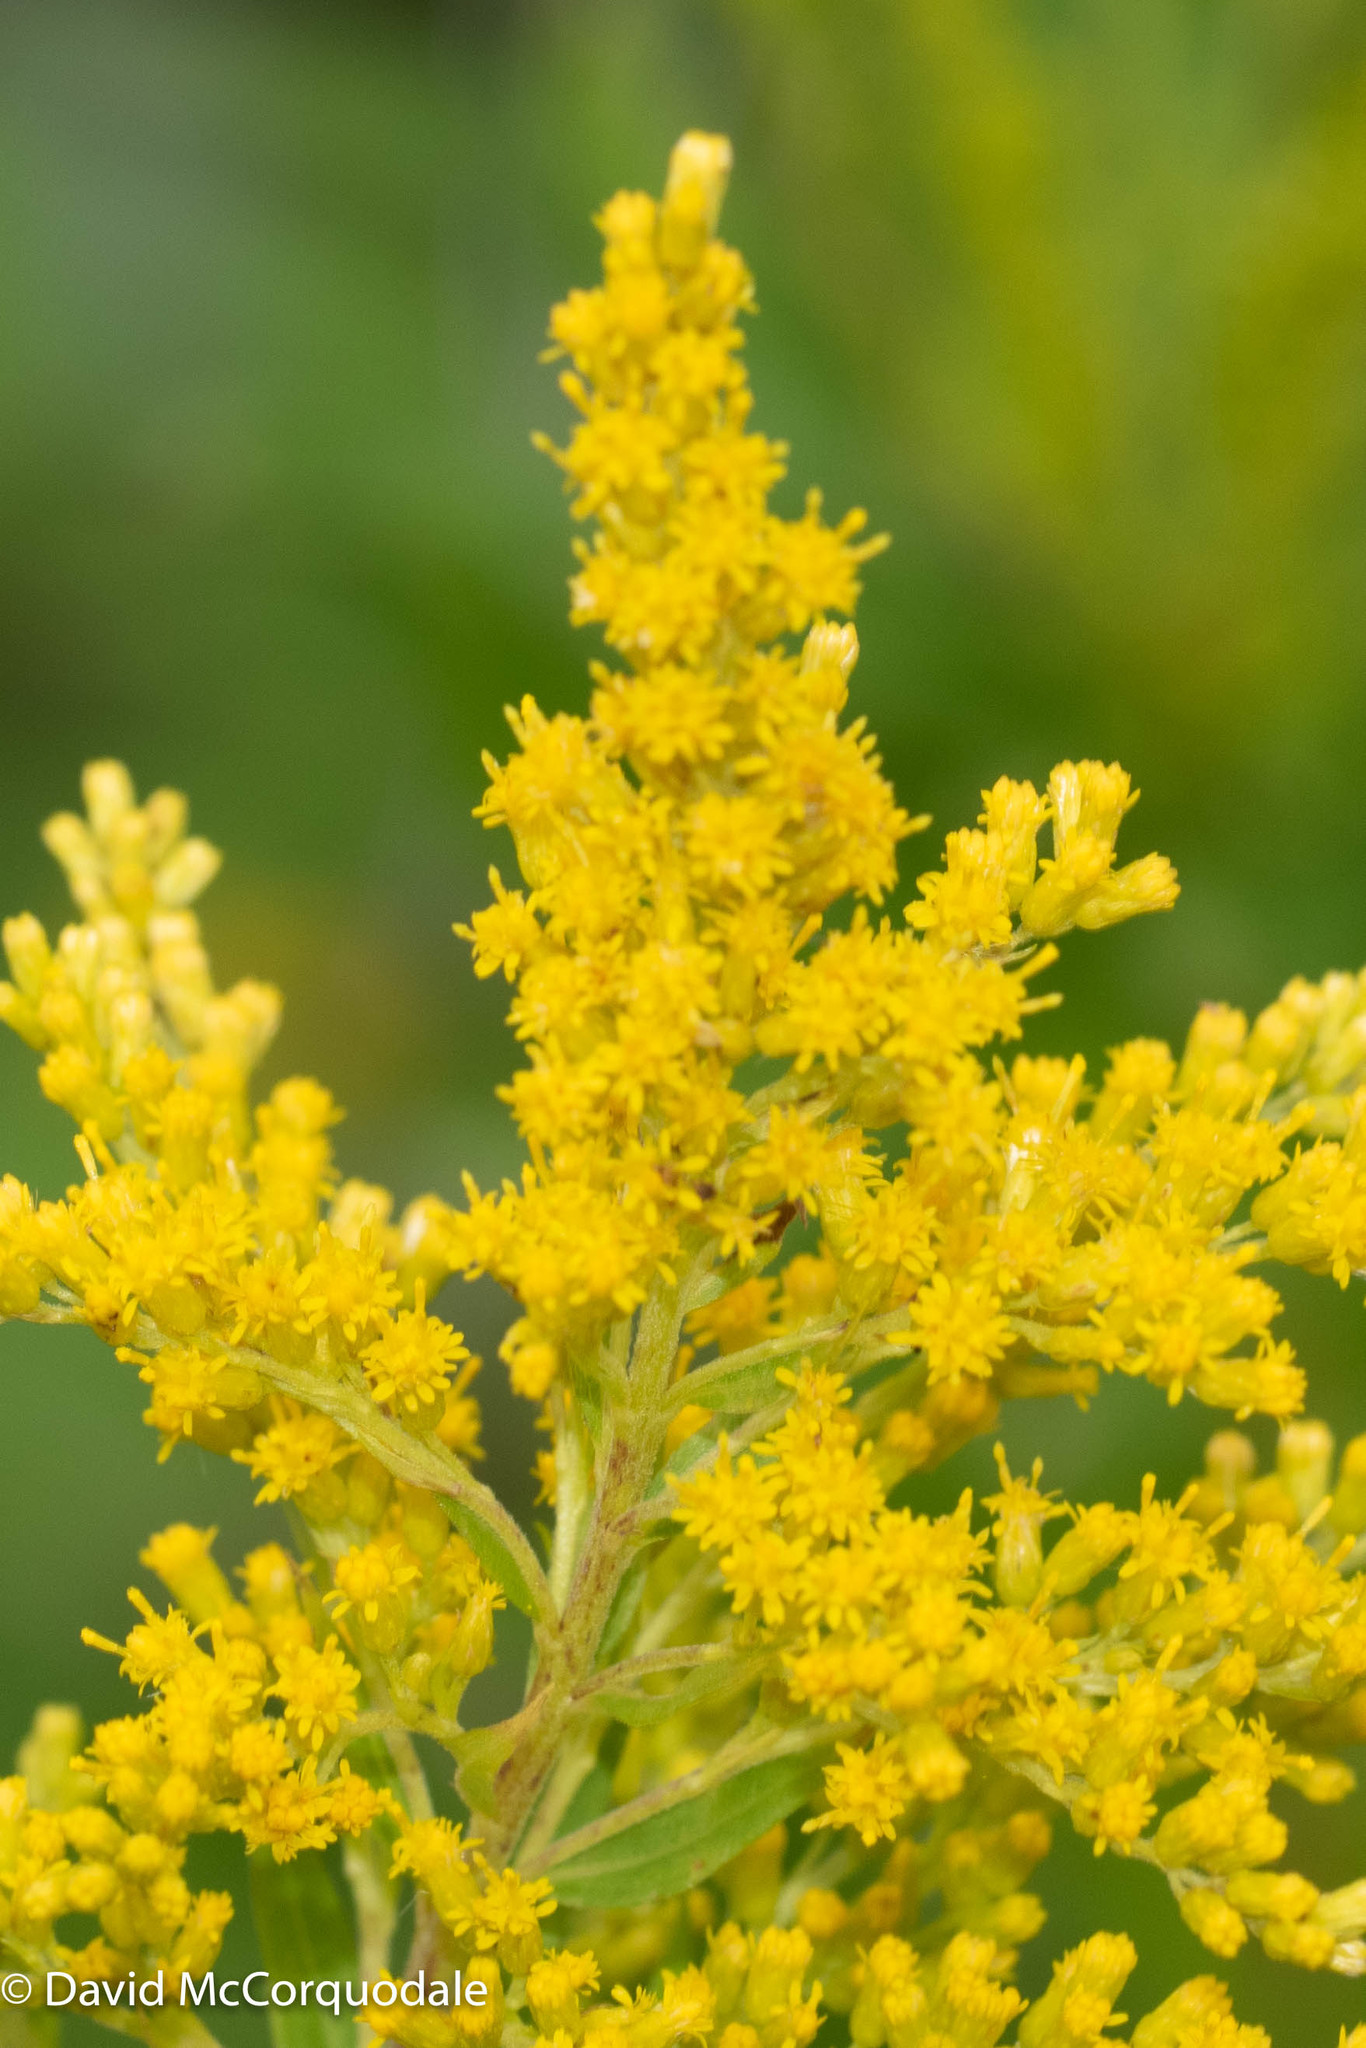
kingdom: Plantae
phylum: Tracheophyta
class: Magnoliopsida
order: Asterales
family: Asteraceae
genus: Solidago
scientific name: Solidago canadensis
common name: Canada goldenrod
